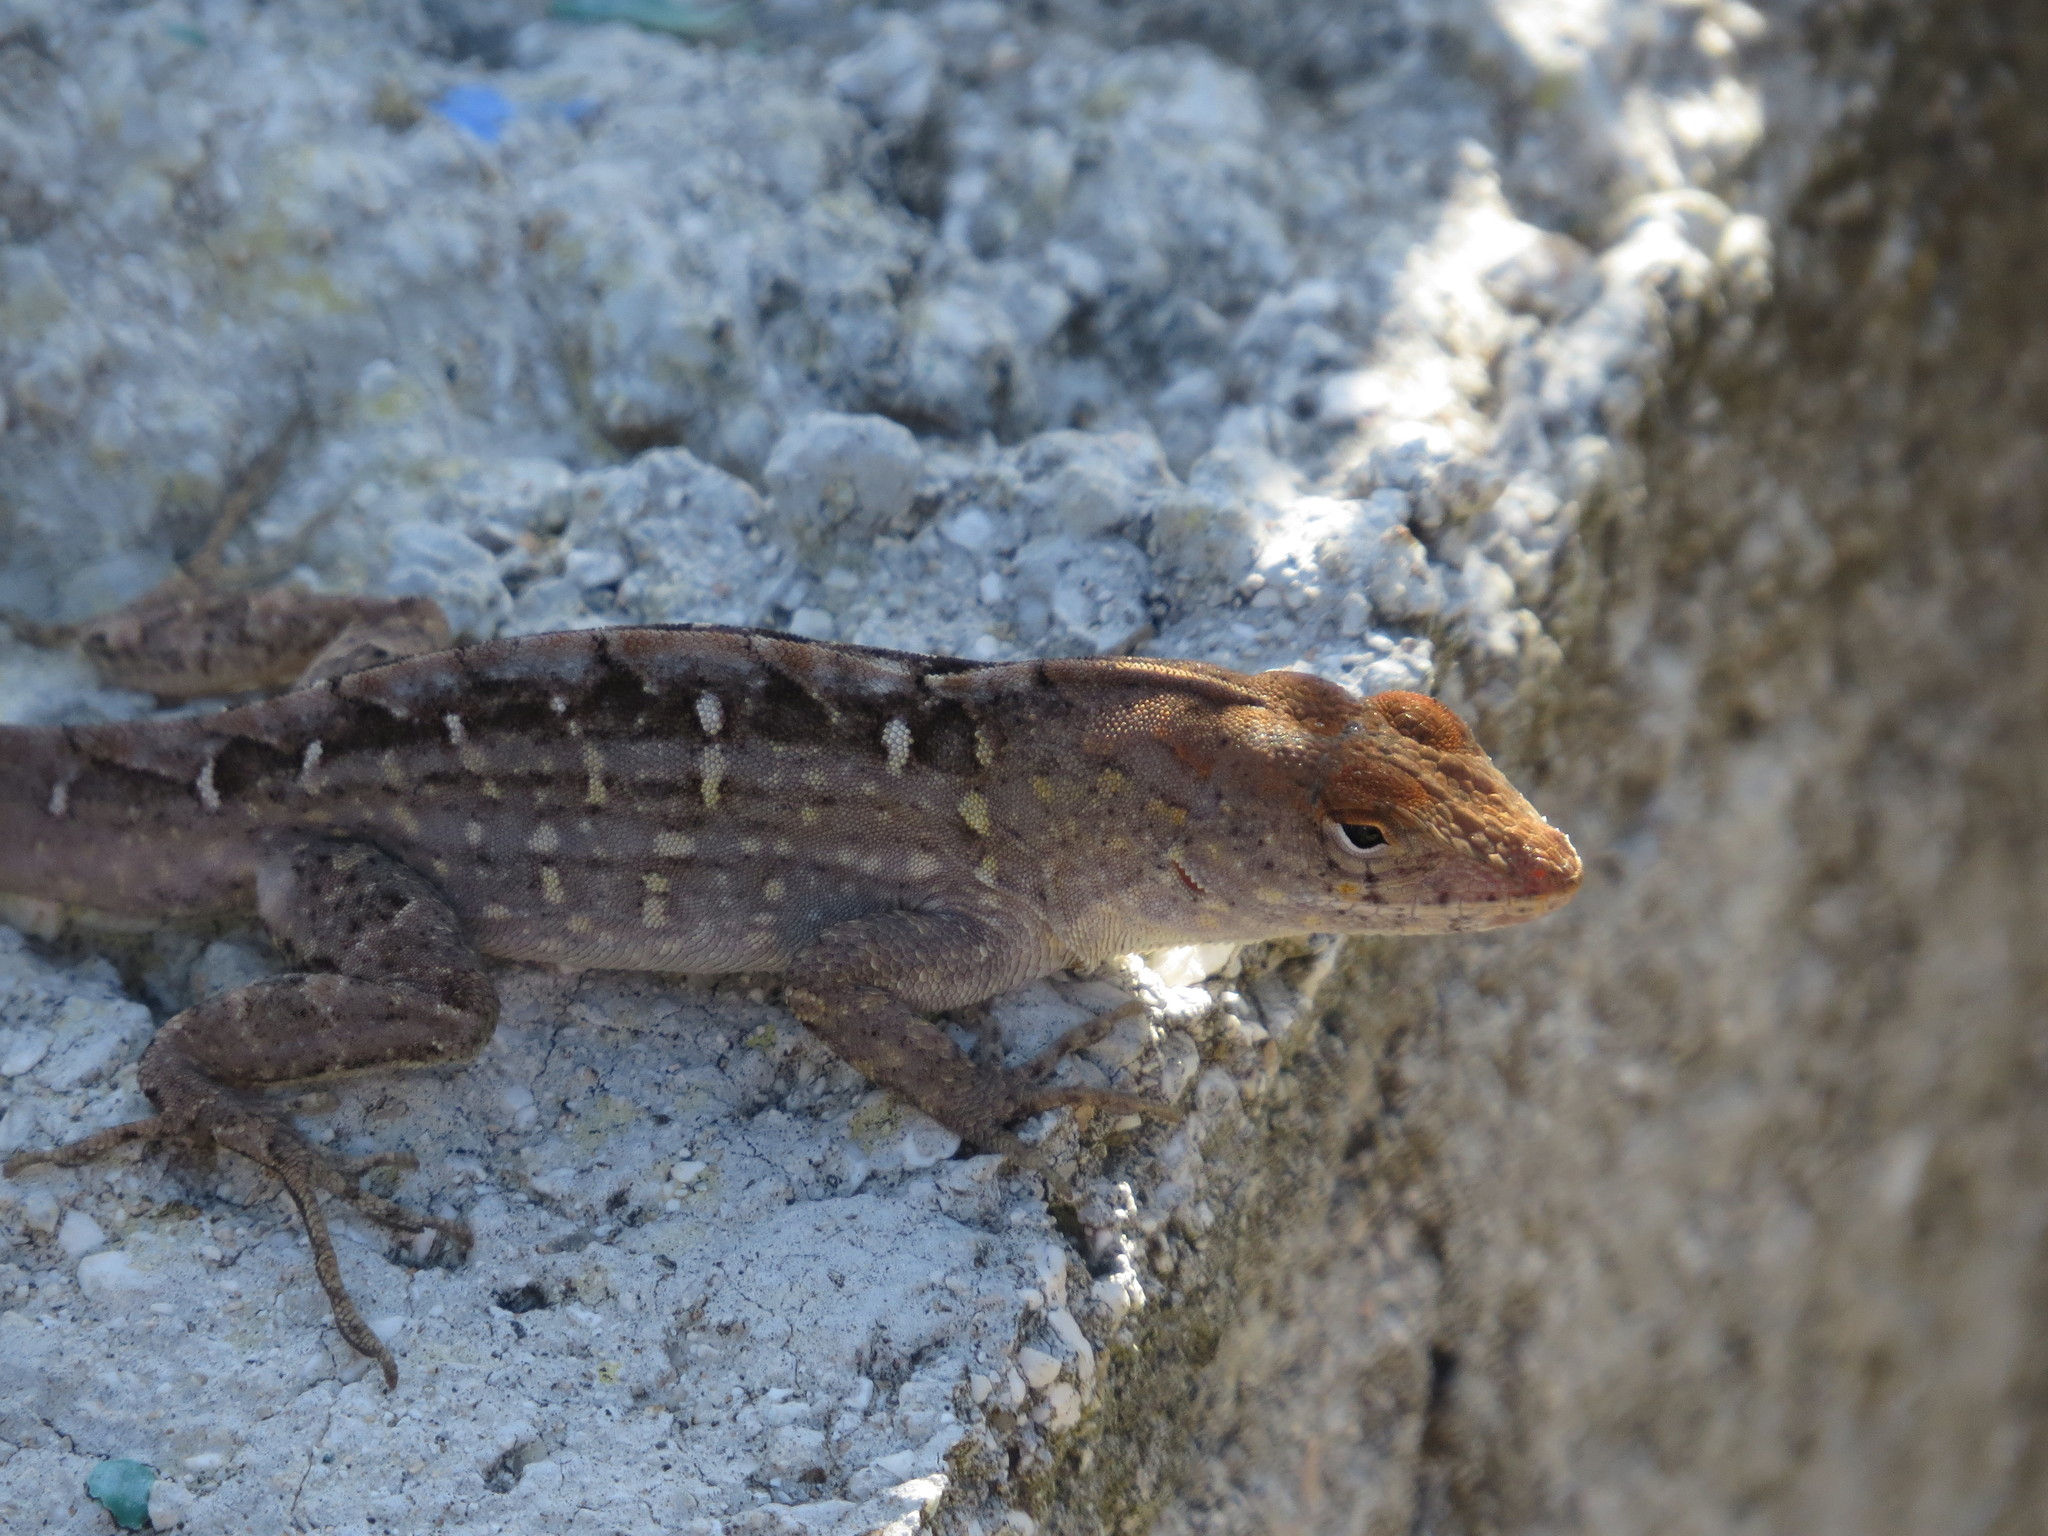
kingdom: Animalia
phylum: Chordata
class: Squamata
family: Dactyloidae
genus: Anolis
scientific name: Anolis sagrei
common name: Brown anole
